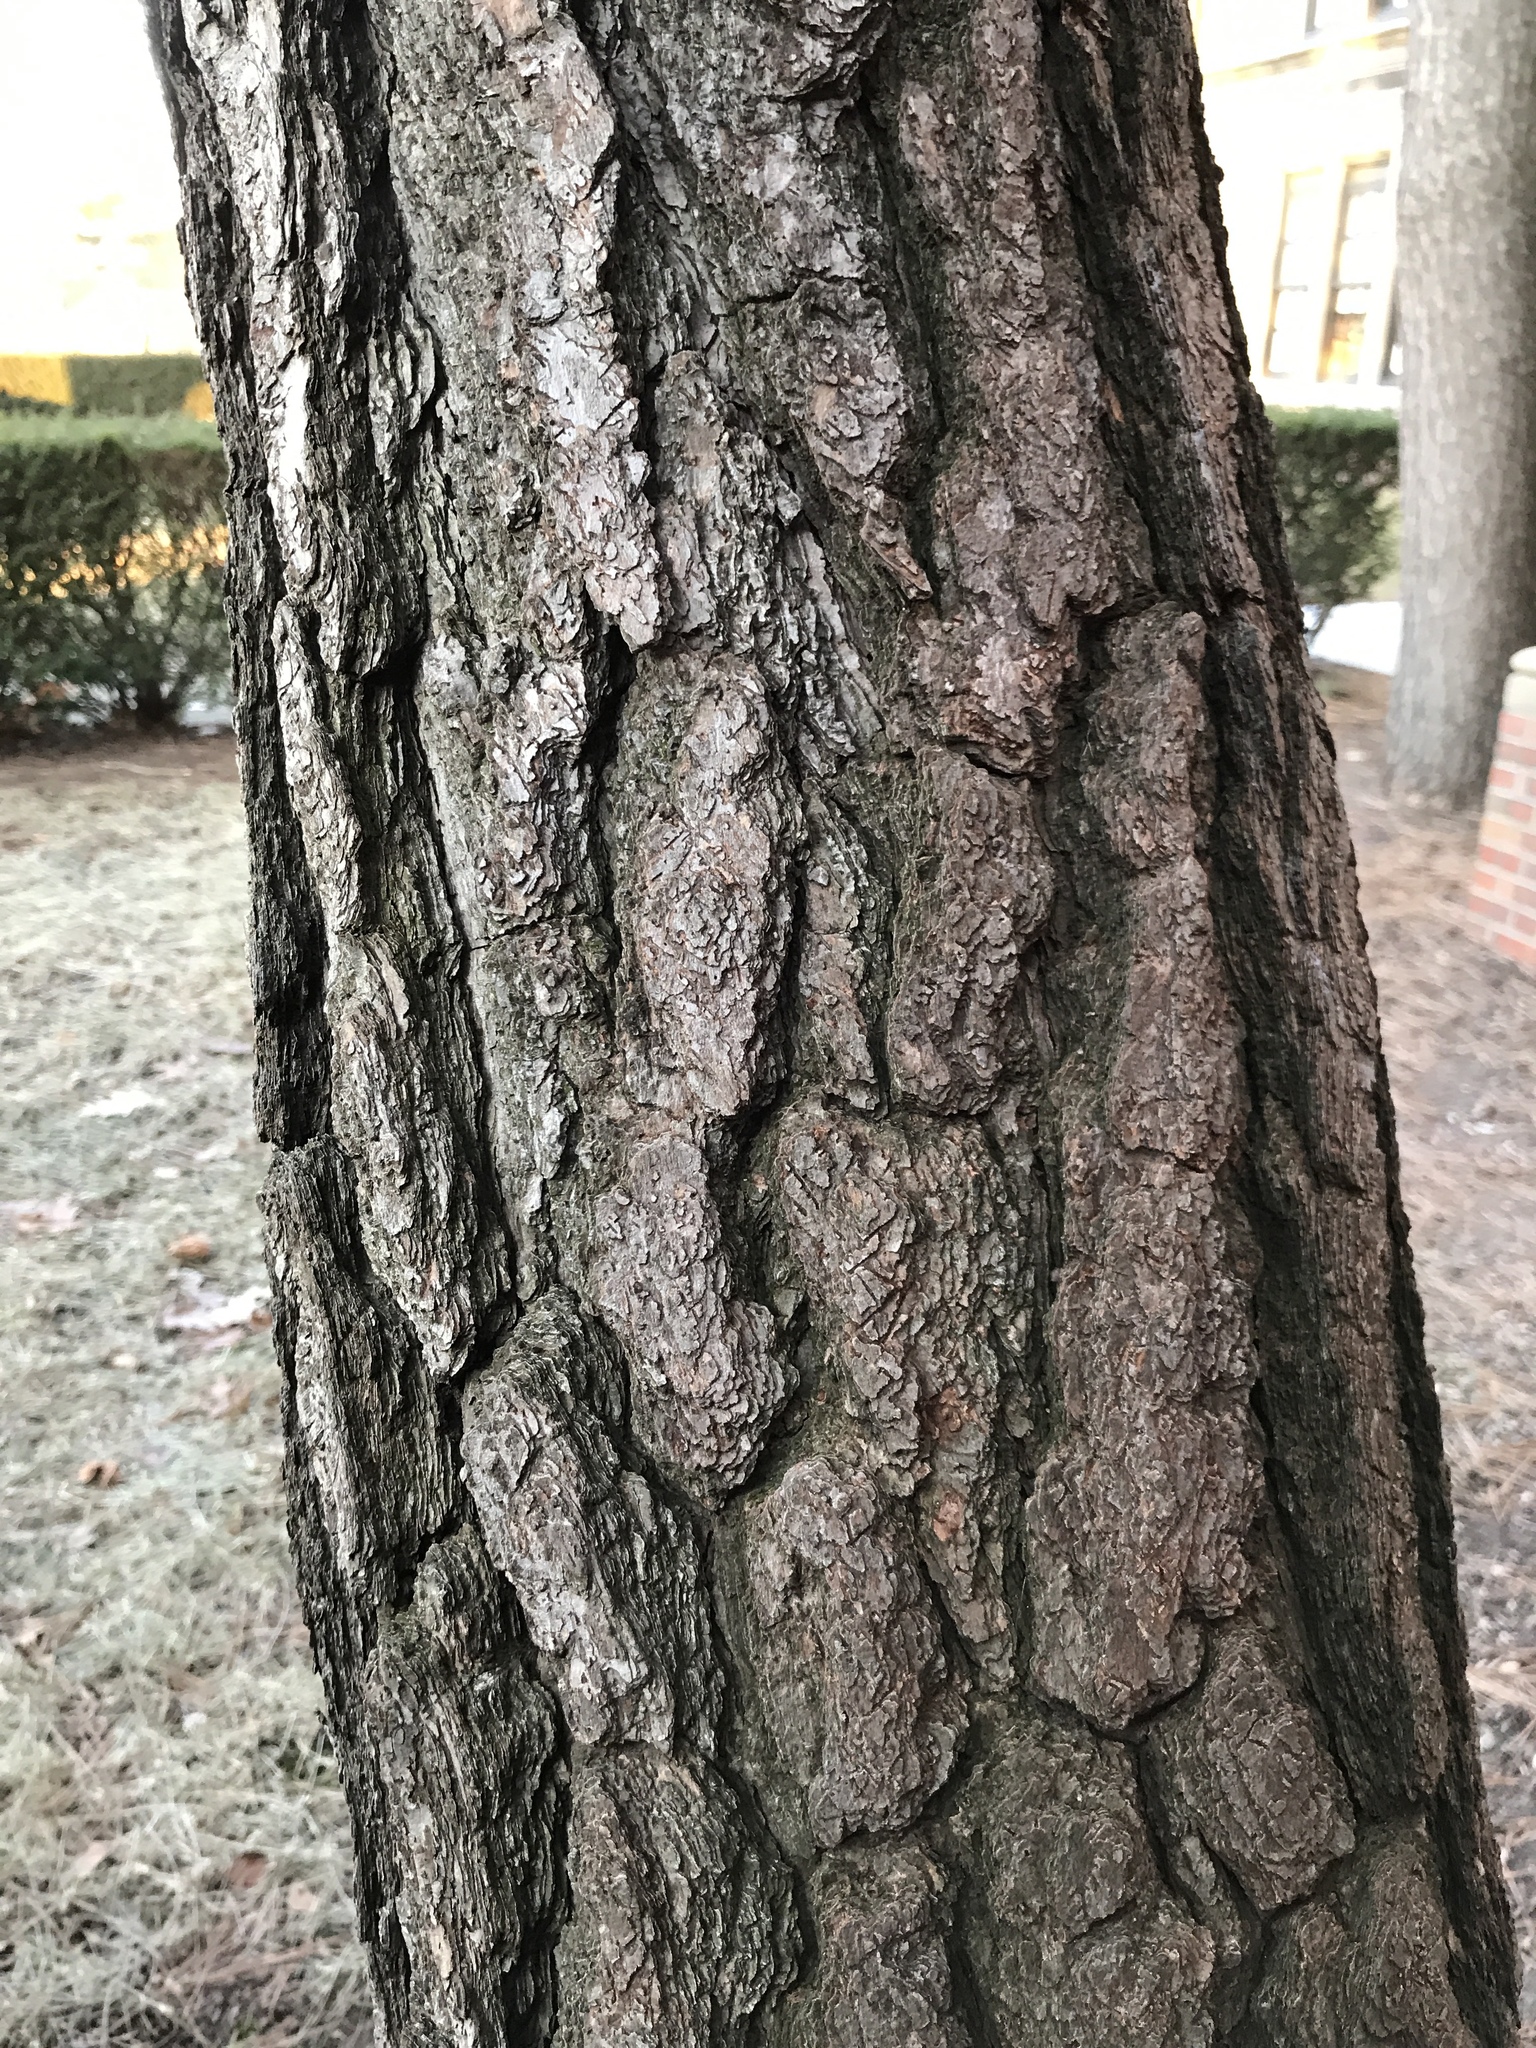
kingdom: Plantae
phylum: Tracheophyta
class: Pinopsida
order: Pinales
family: Pinaceae
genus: Pinus
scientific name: Pinus
